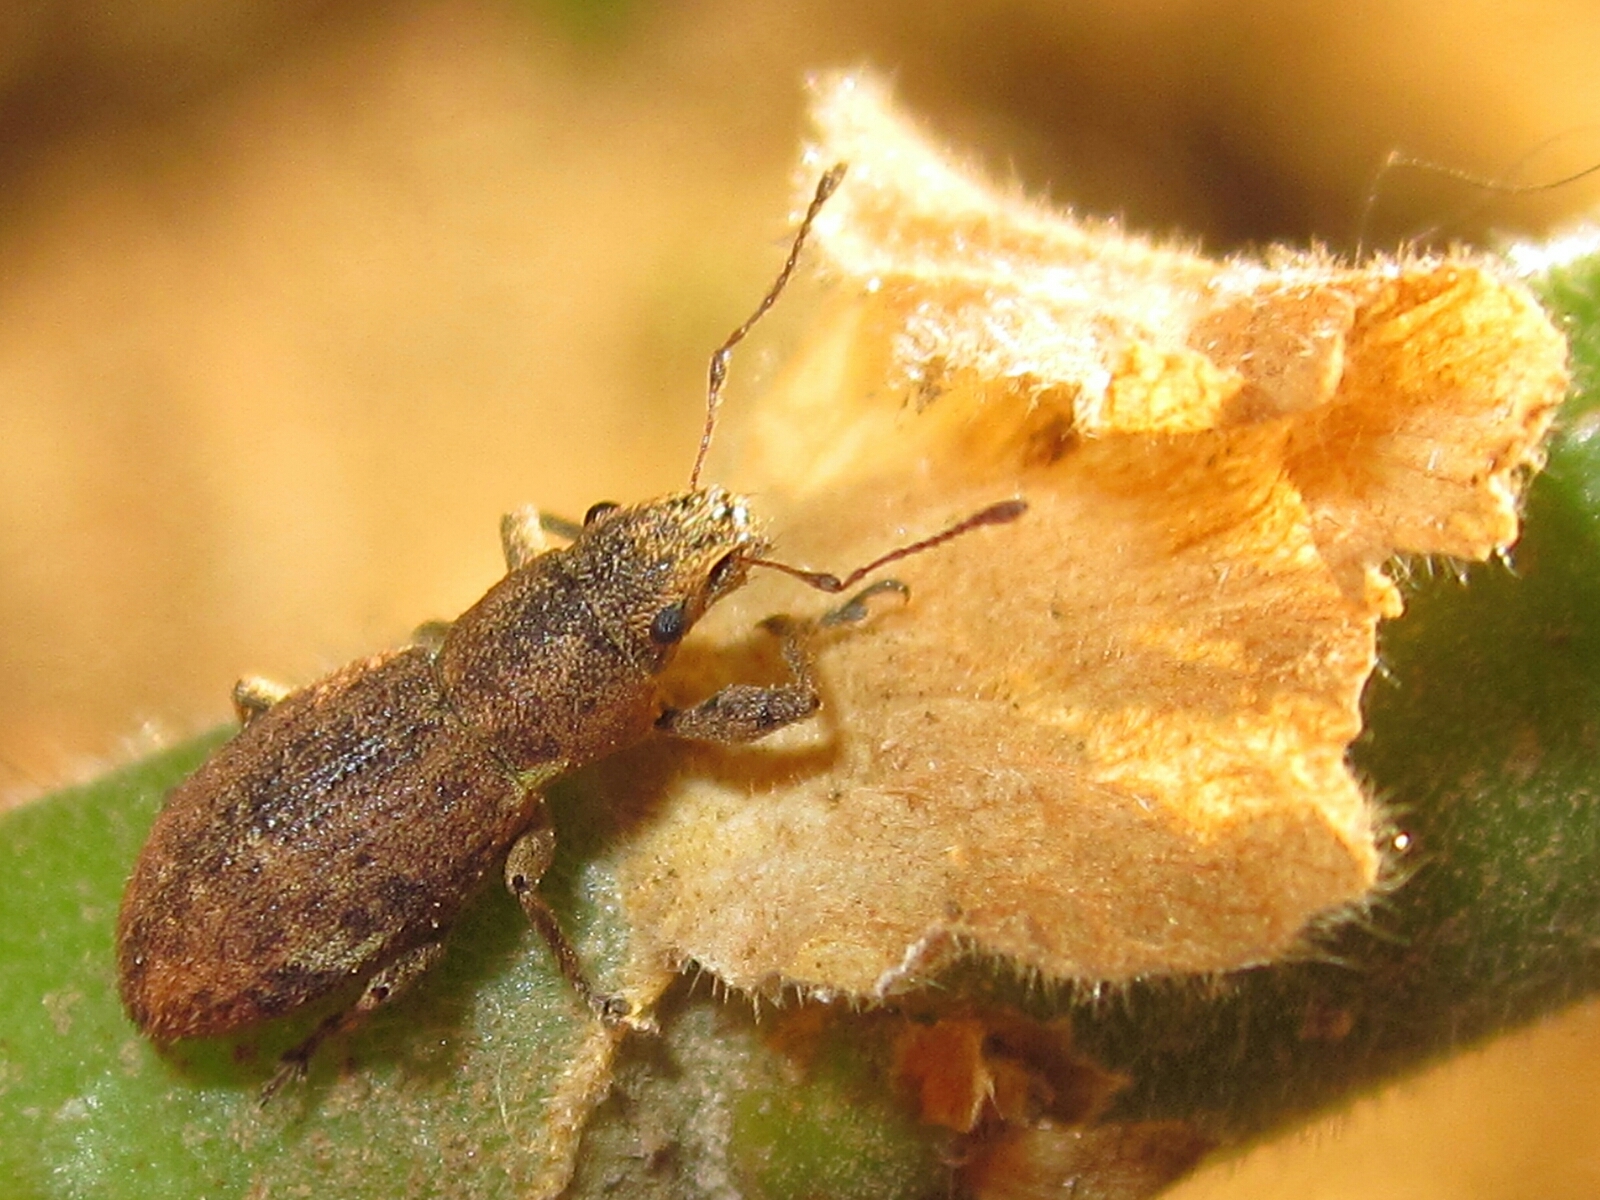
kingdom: Animalia
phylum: Arthropoda
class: Insecta
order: Coleoptera
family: Curculionidae
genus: Naupactus
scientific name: Naupactus cervinus
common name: Fuller rose beetle
